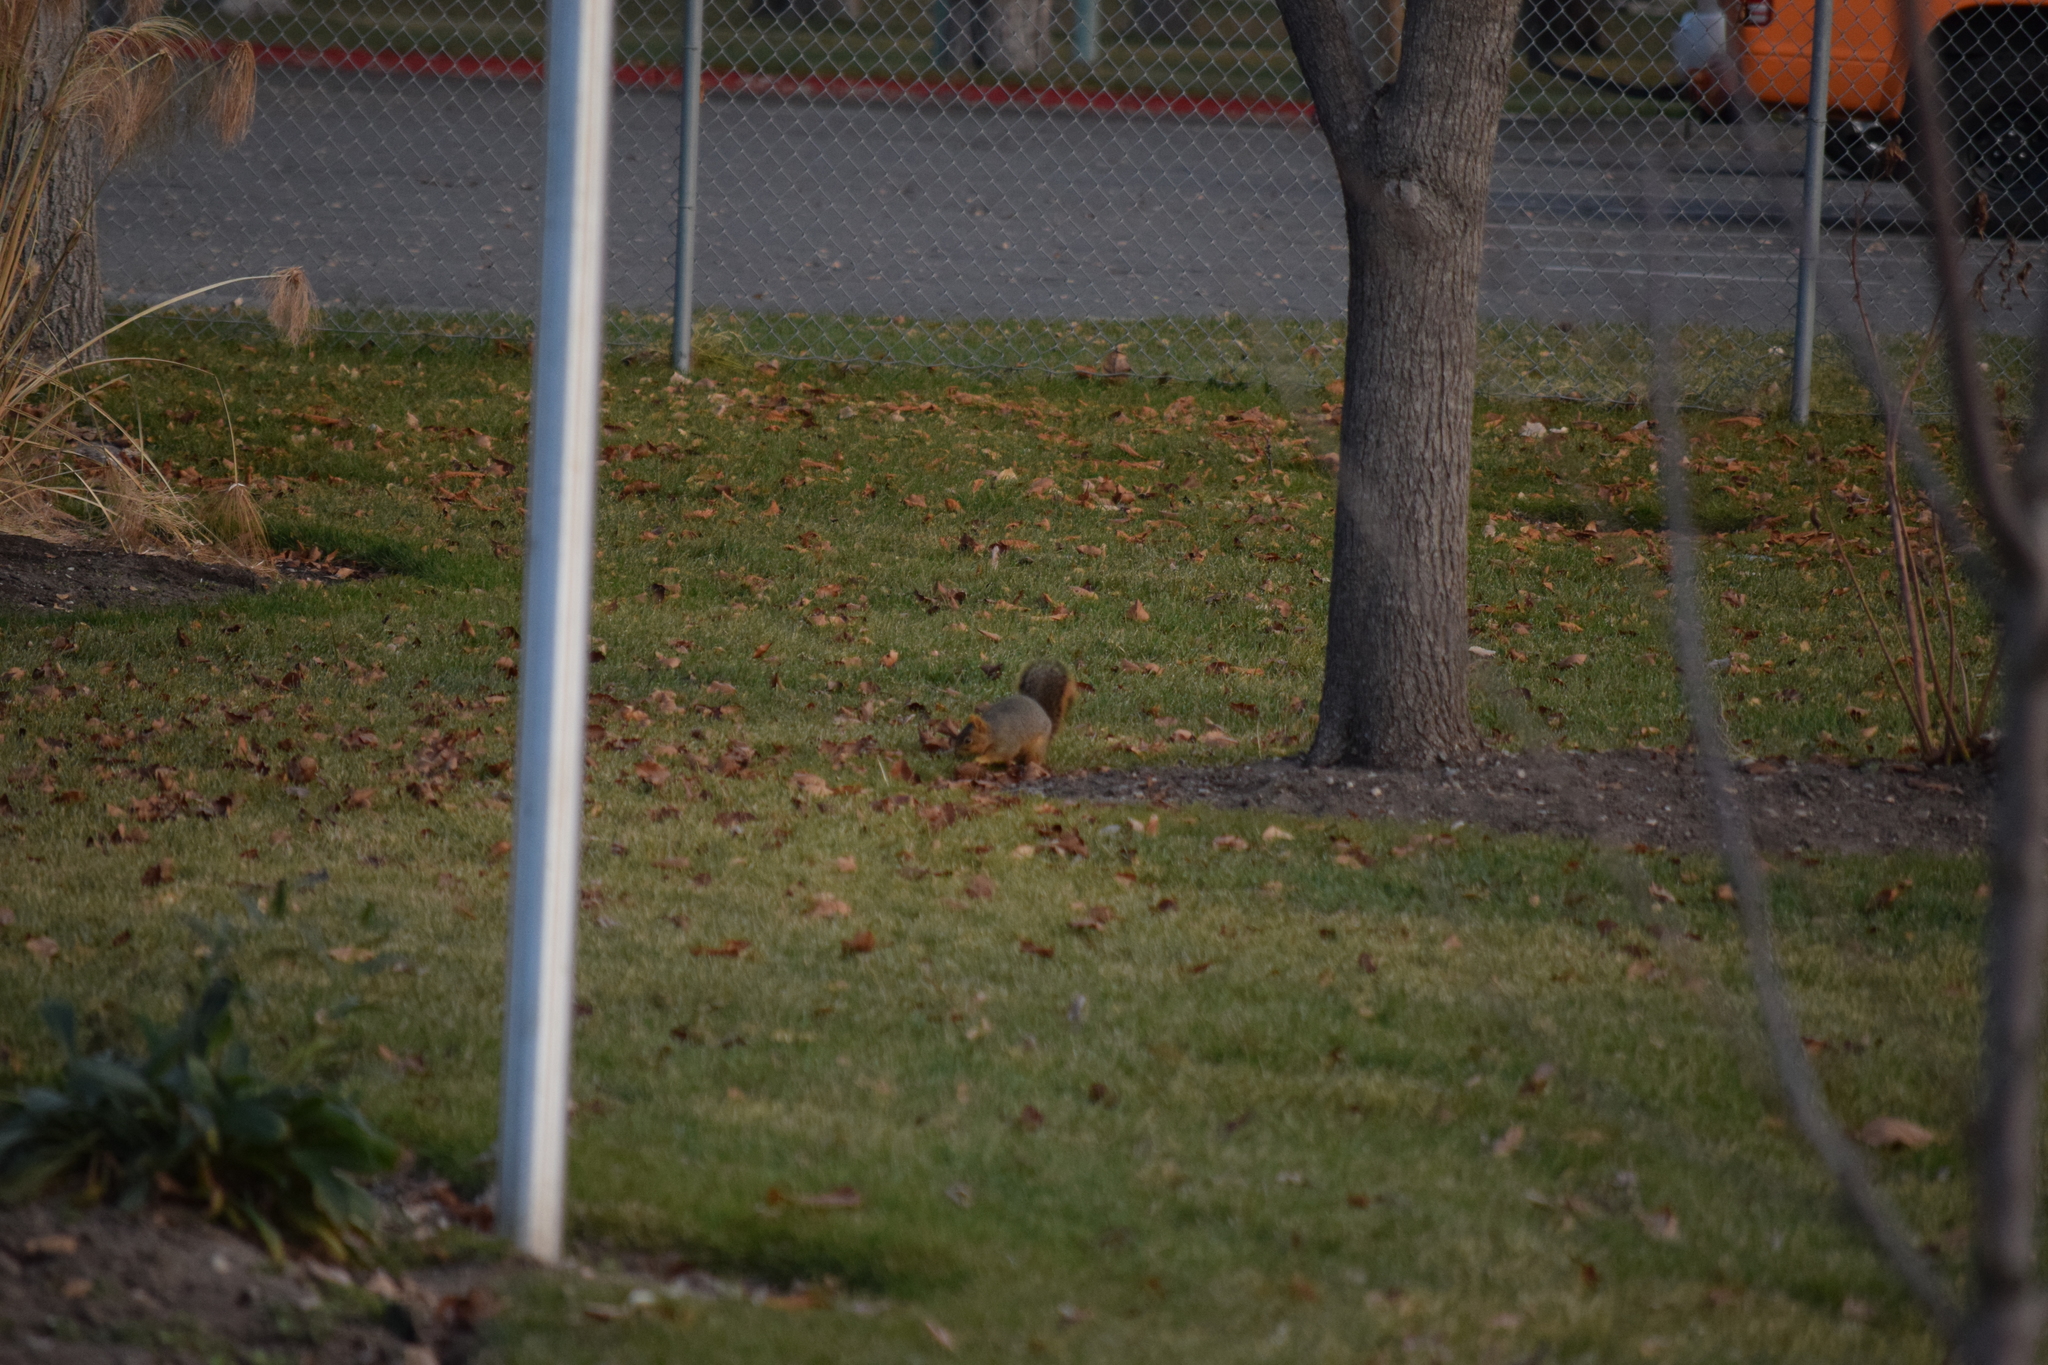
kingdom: Animalia
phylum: Chordata
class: Mammalia
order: Rodentia
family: Sciuridae
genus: Sciurus
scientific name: Sciurus niger
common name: Fox squirrel
